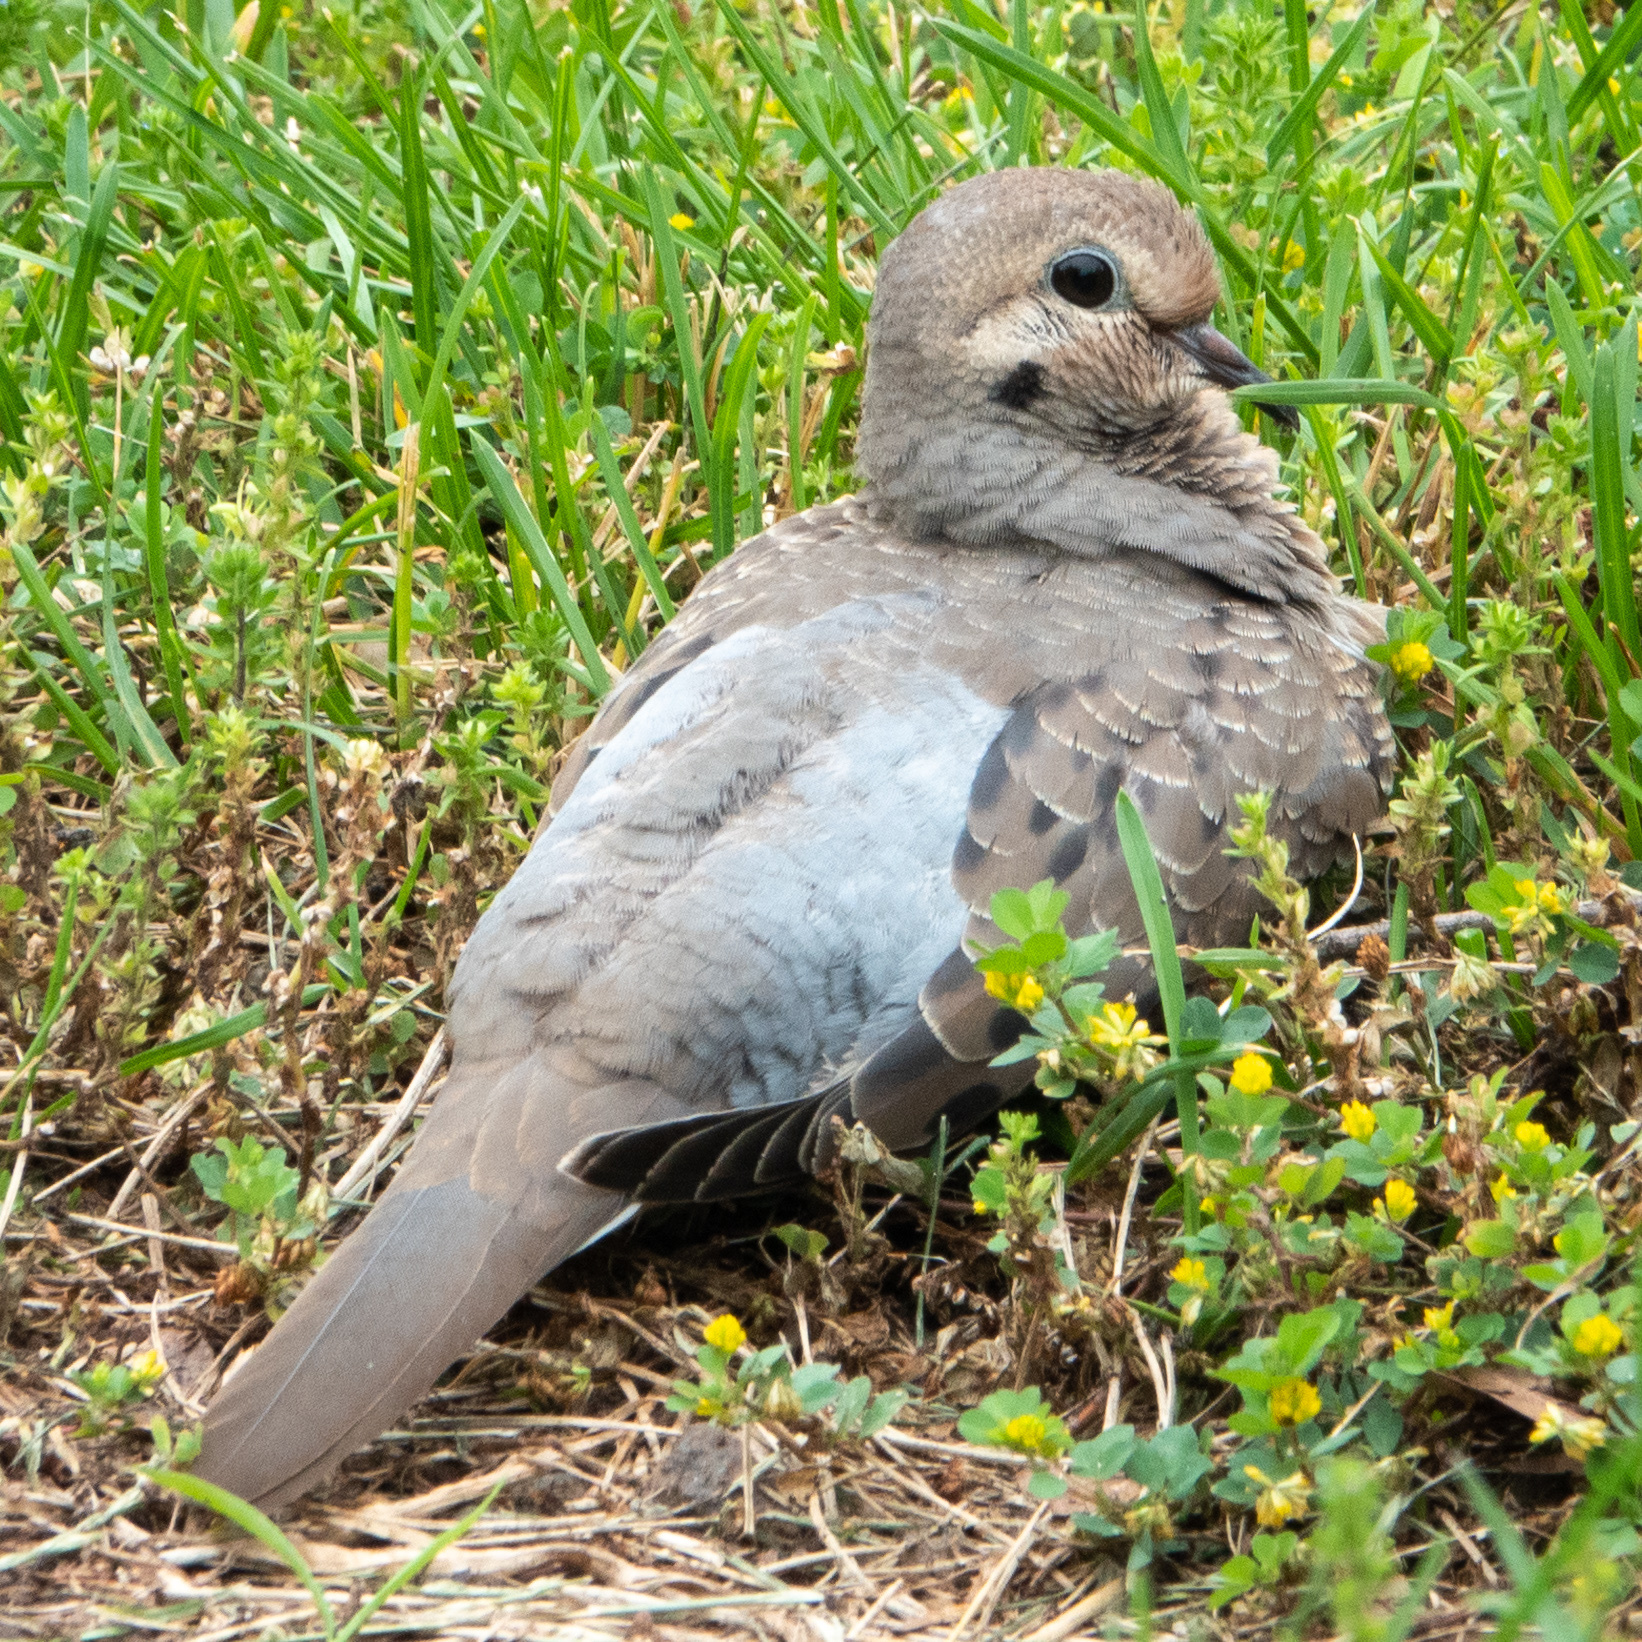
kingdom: Animalia
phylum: Chordata
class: Aves
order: Columbiformes
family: Columbidae
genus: Zenaida
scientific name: Zenaida macroura
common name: Mourning dove
